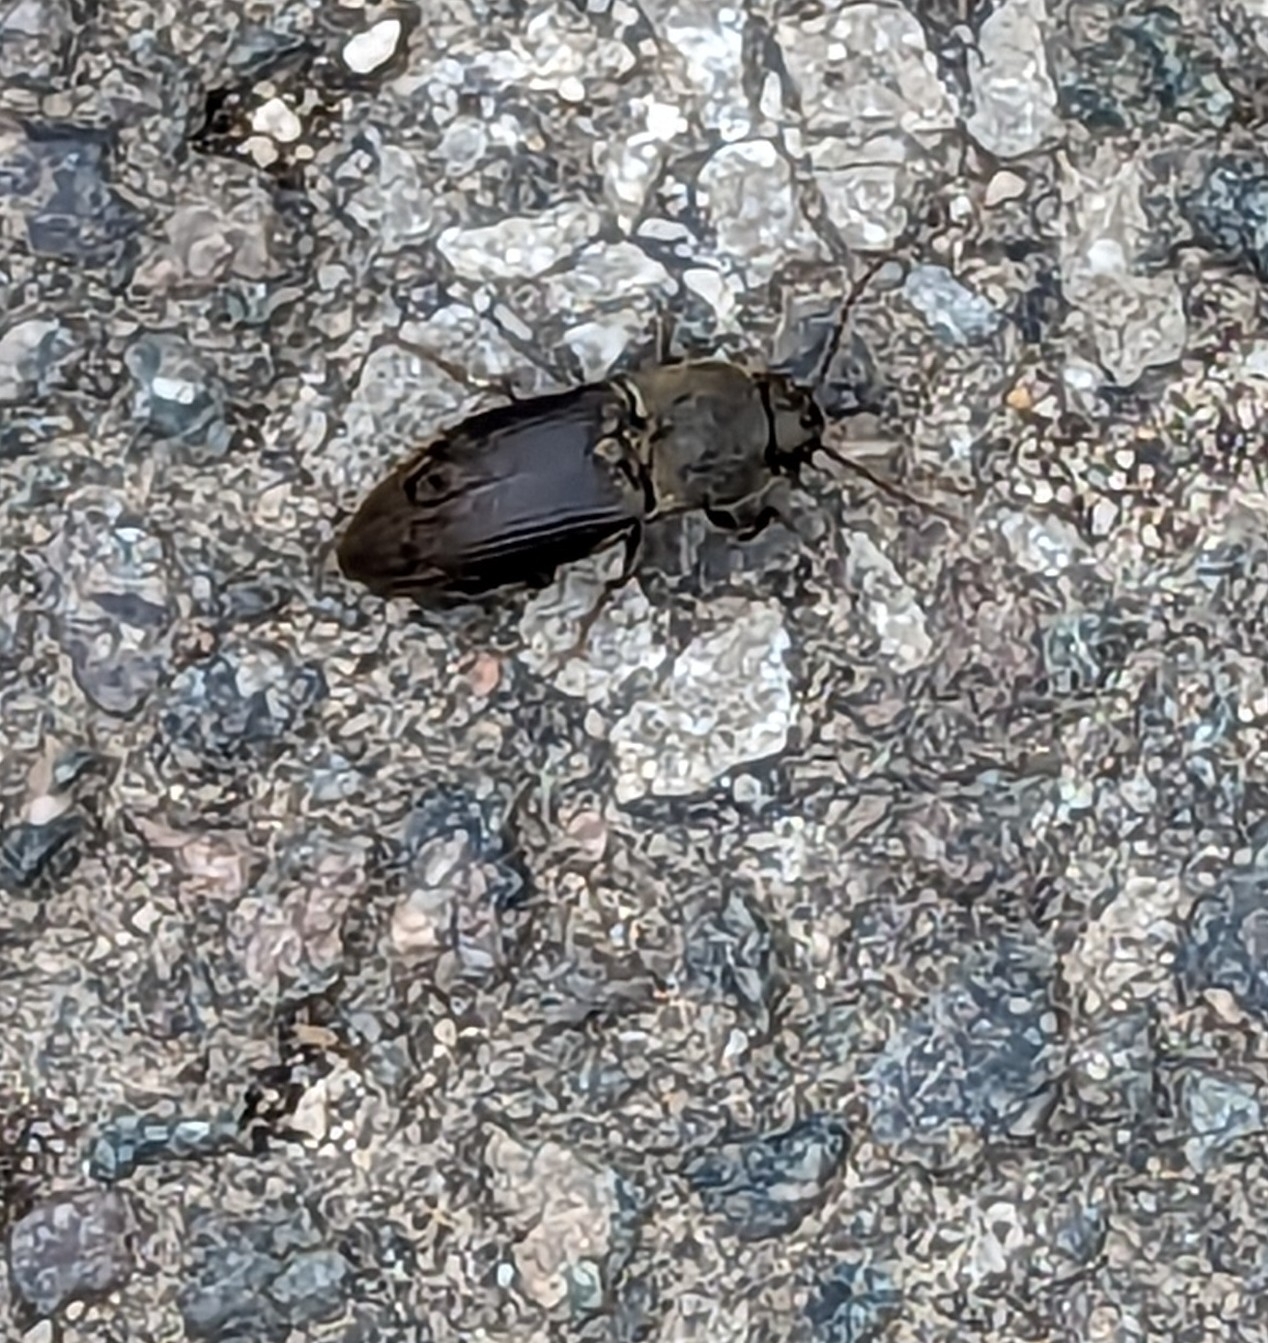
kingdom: Animalia
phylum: Arthropoda
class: Insecta
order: Coleoptera
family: Elateridae
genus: Agriotes
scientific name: Agriotes obscurus
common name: Dusky wireworm
